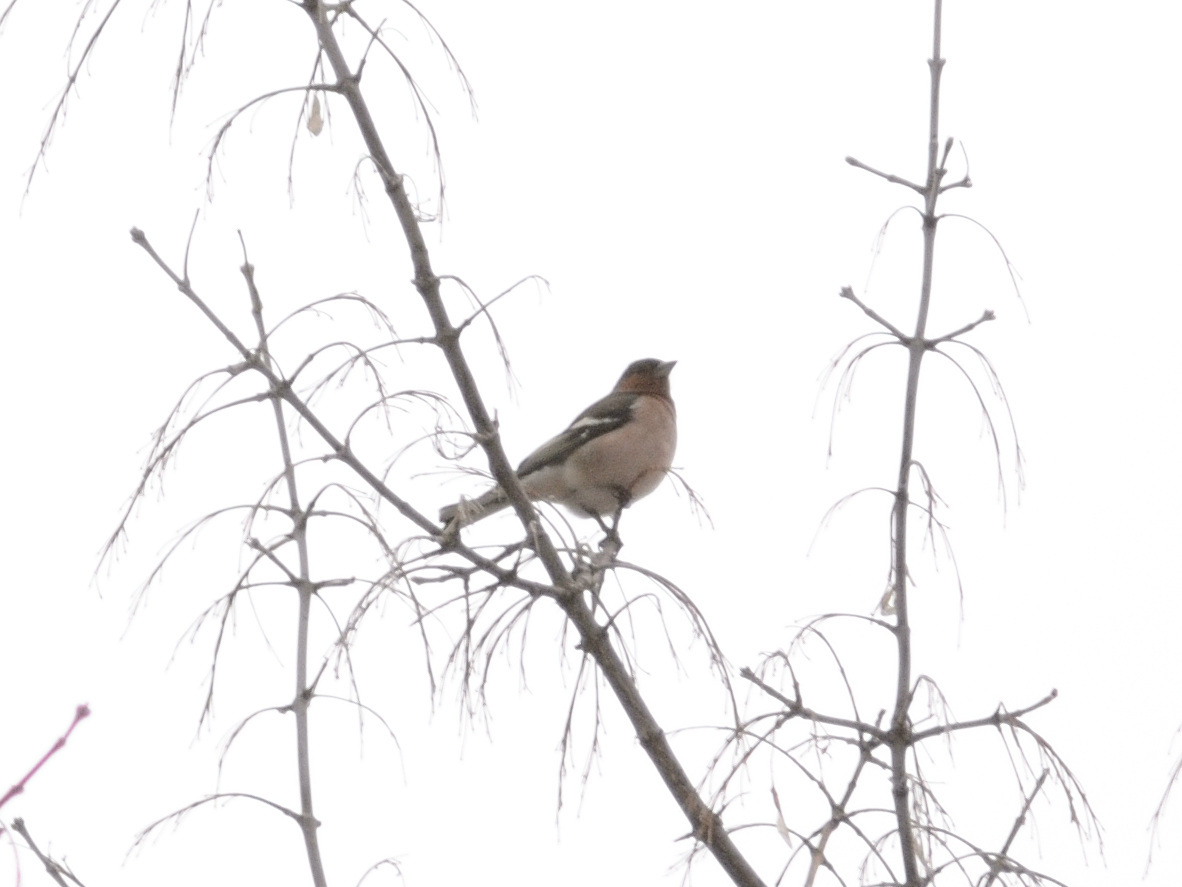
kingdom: Animalia
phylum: Chordata
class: Aves
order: Passeriformes
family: Fringillidae
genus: Fringilla
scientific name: Fringilla coelebs
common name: Common chaffinch
